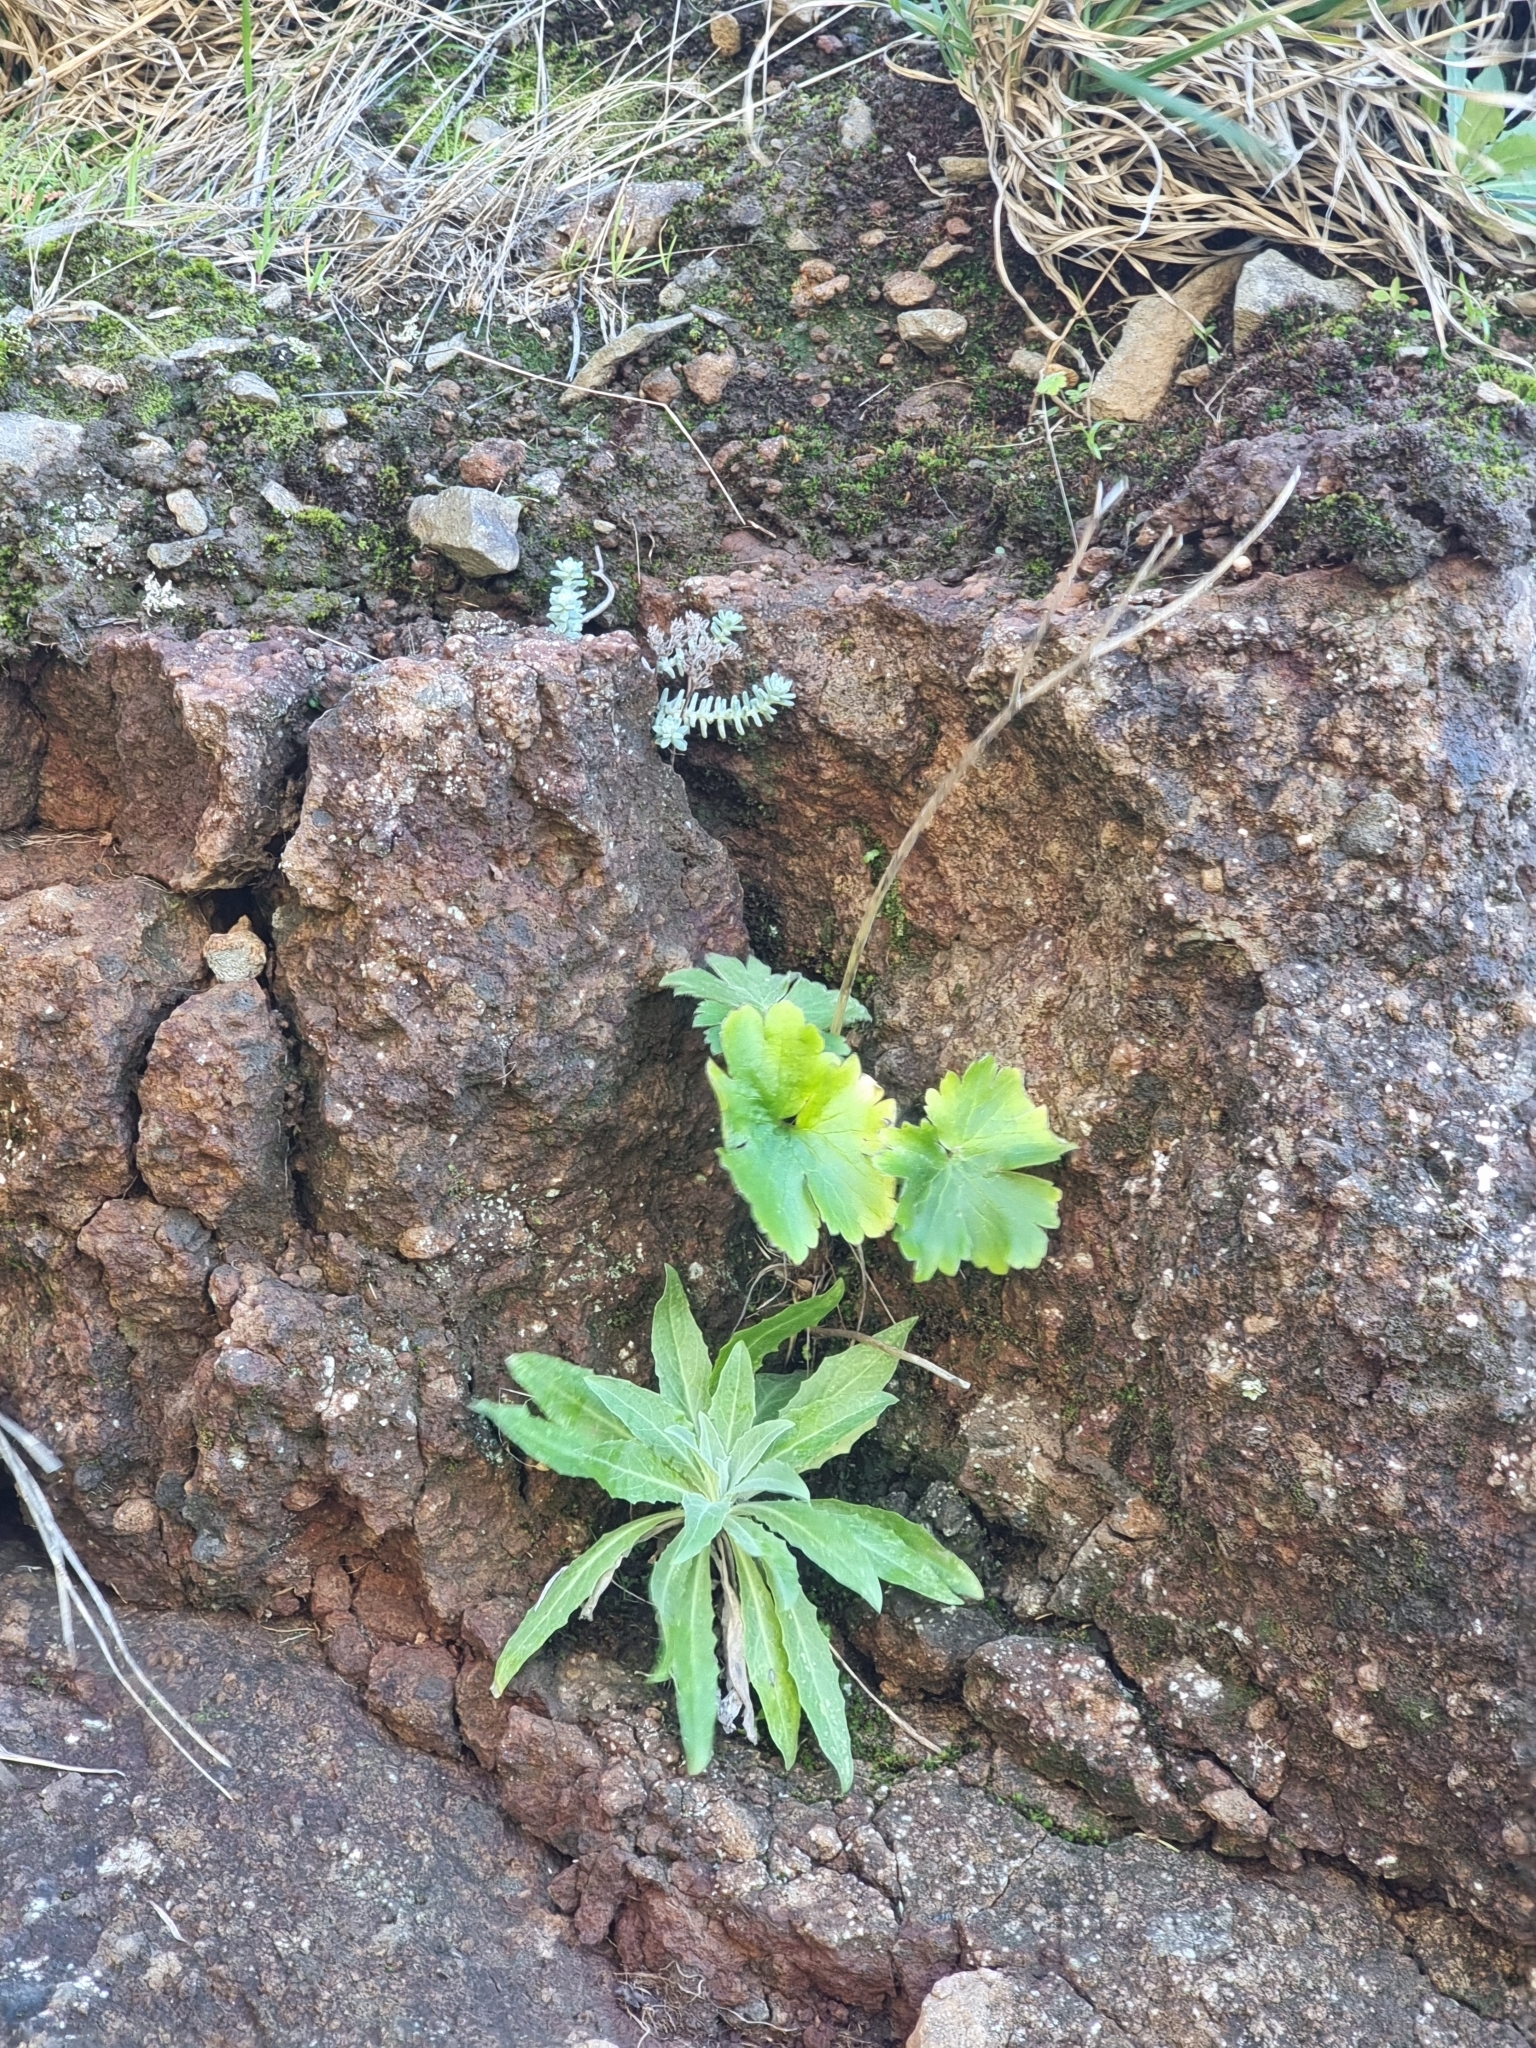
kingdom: Plantae
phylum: Tracheophyta
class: Magnoliopsida
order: Ranunculales
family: Ranunculaceae
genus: Ranunculus
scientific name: Ranunculus cortusifolius
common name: Azores buttercup
